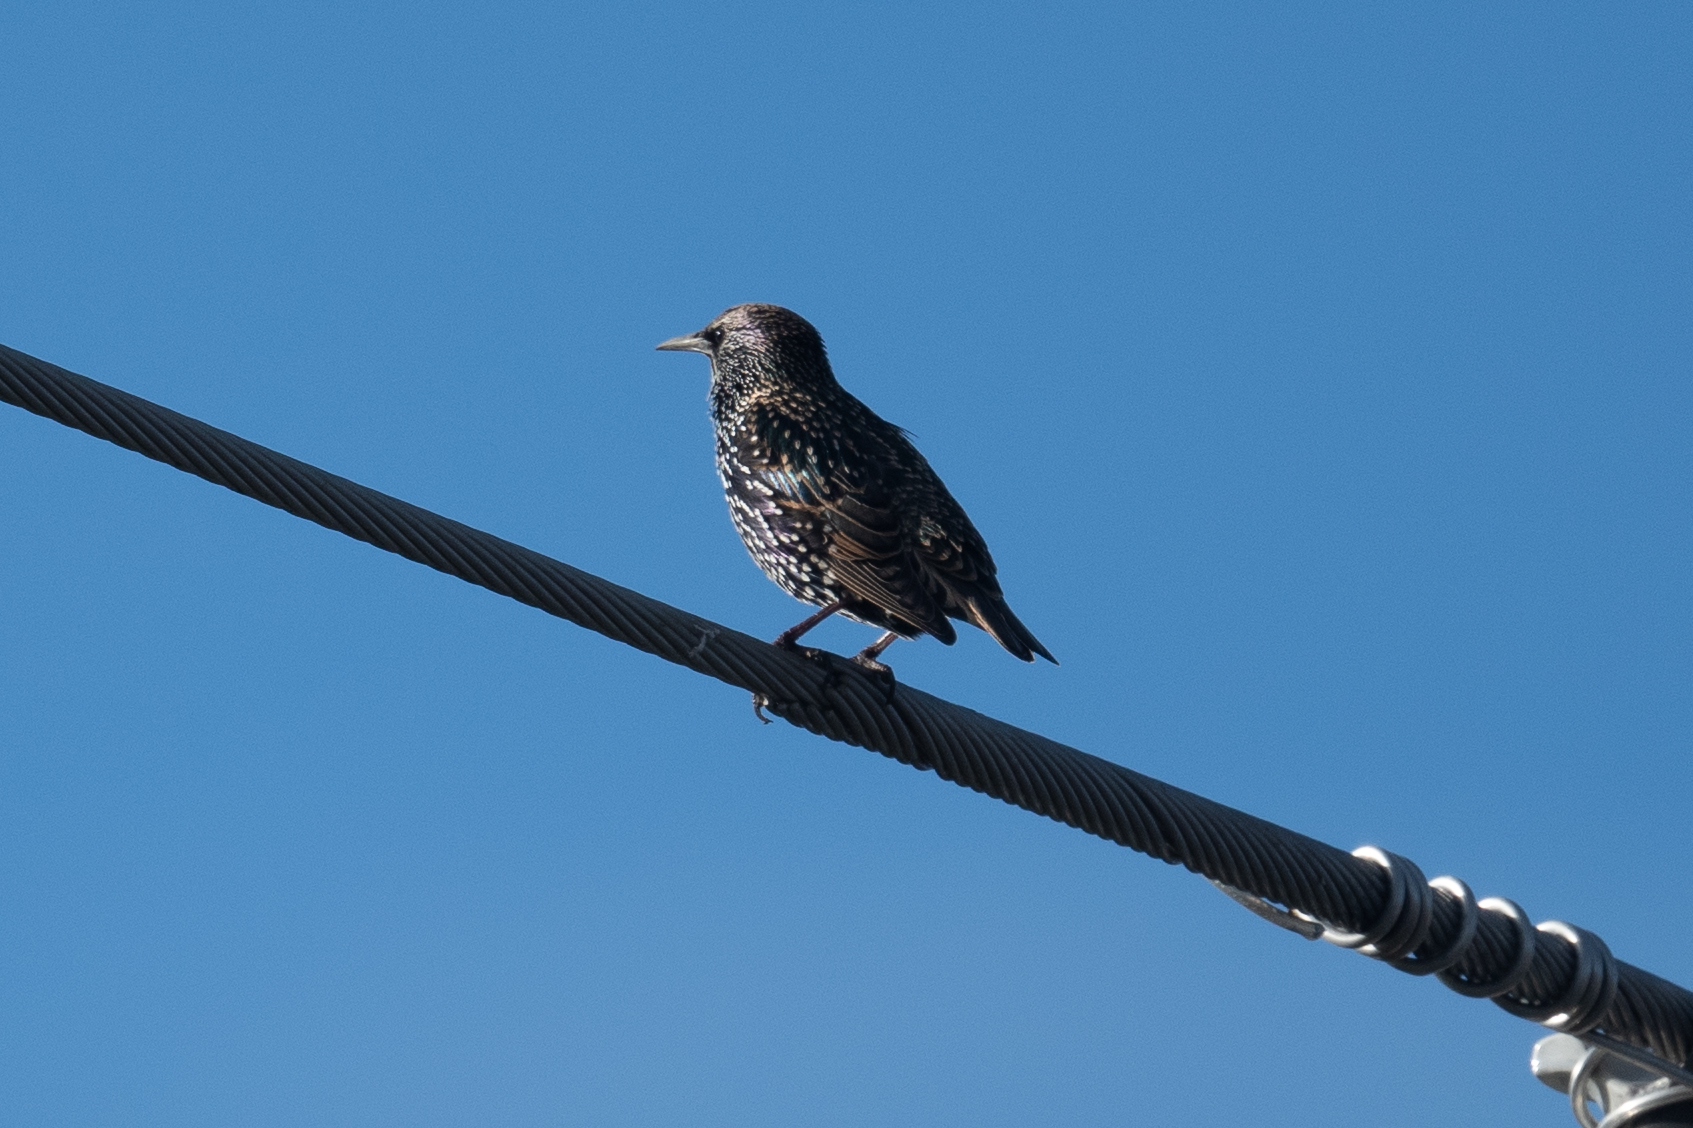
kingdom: Animalia
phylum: Chordata
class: Aves
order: Passeriformes
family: Sturnidae
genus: Sturnus
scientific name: Sturnus vulgaris
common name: Common starling
